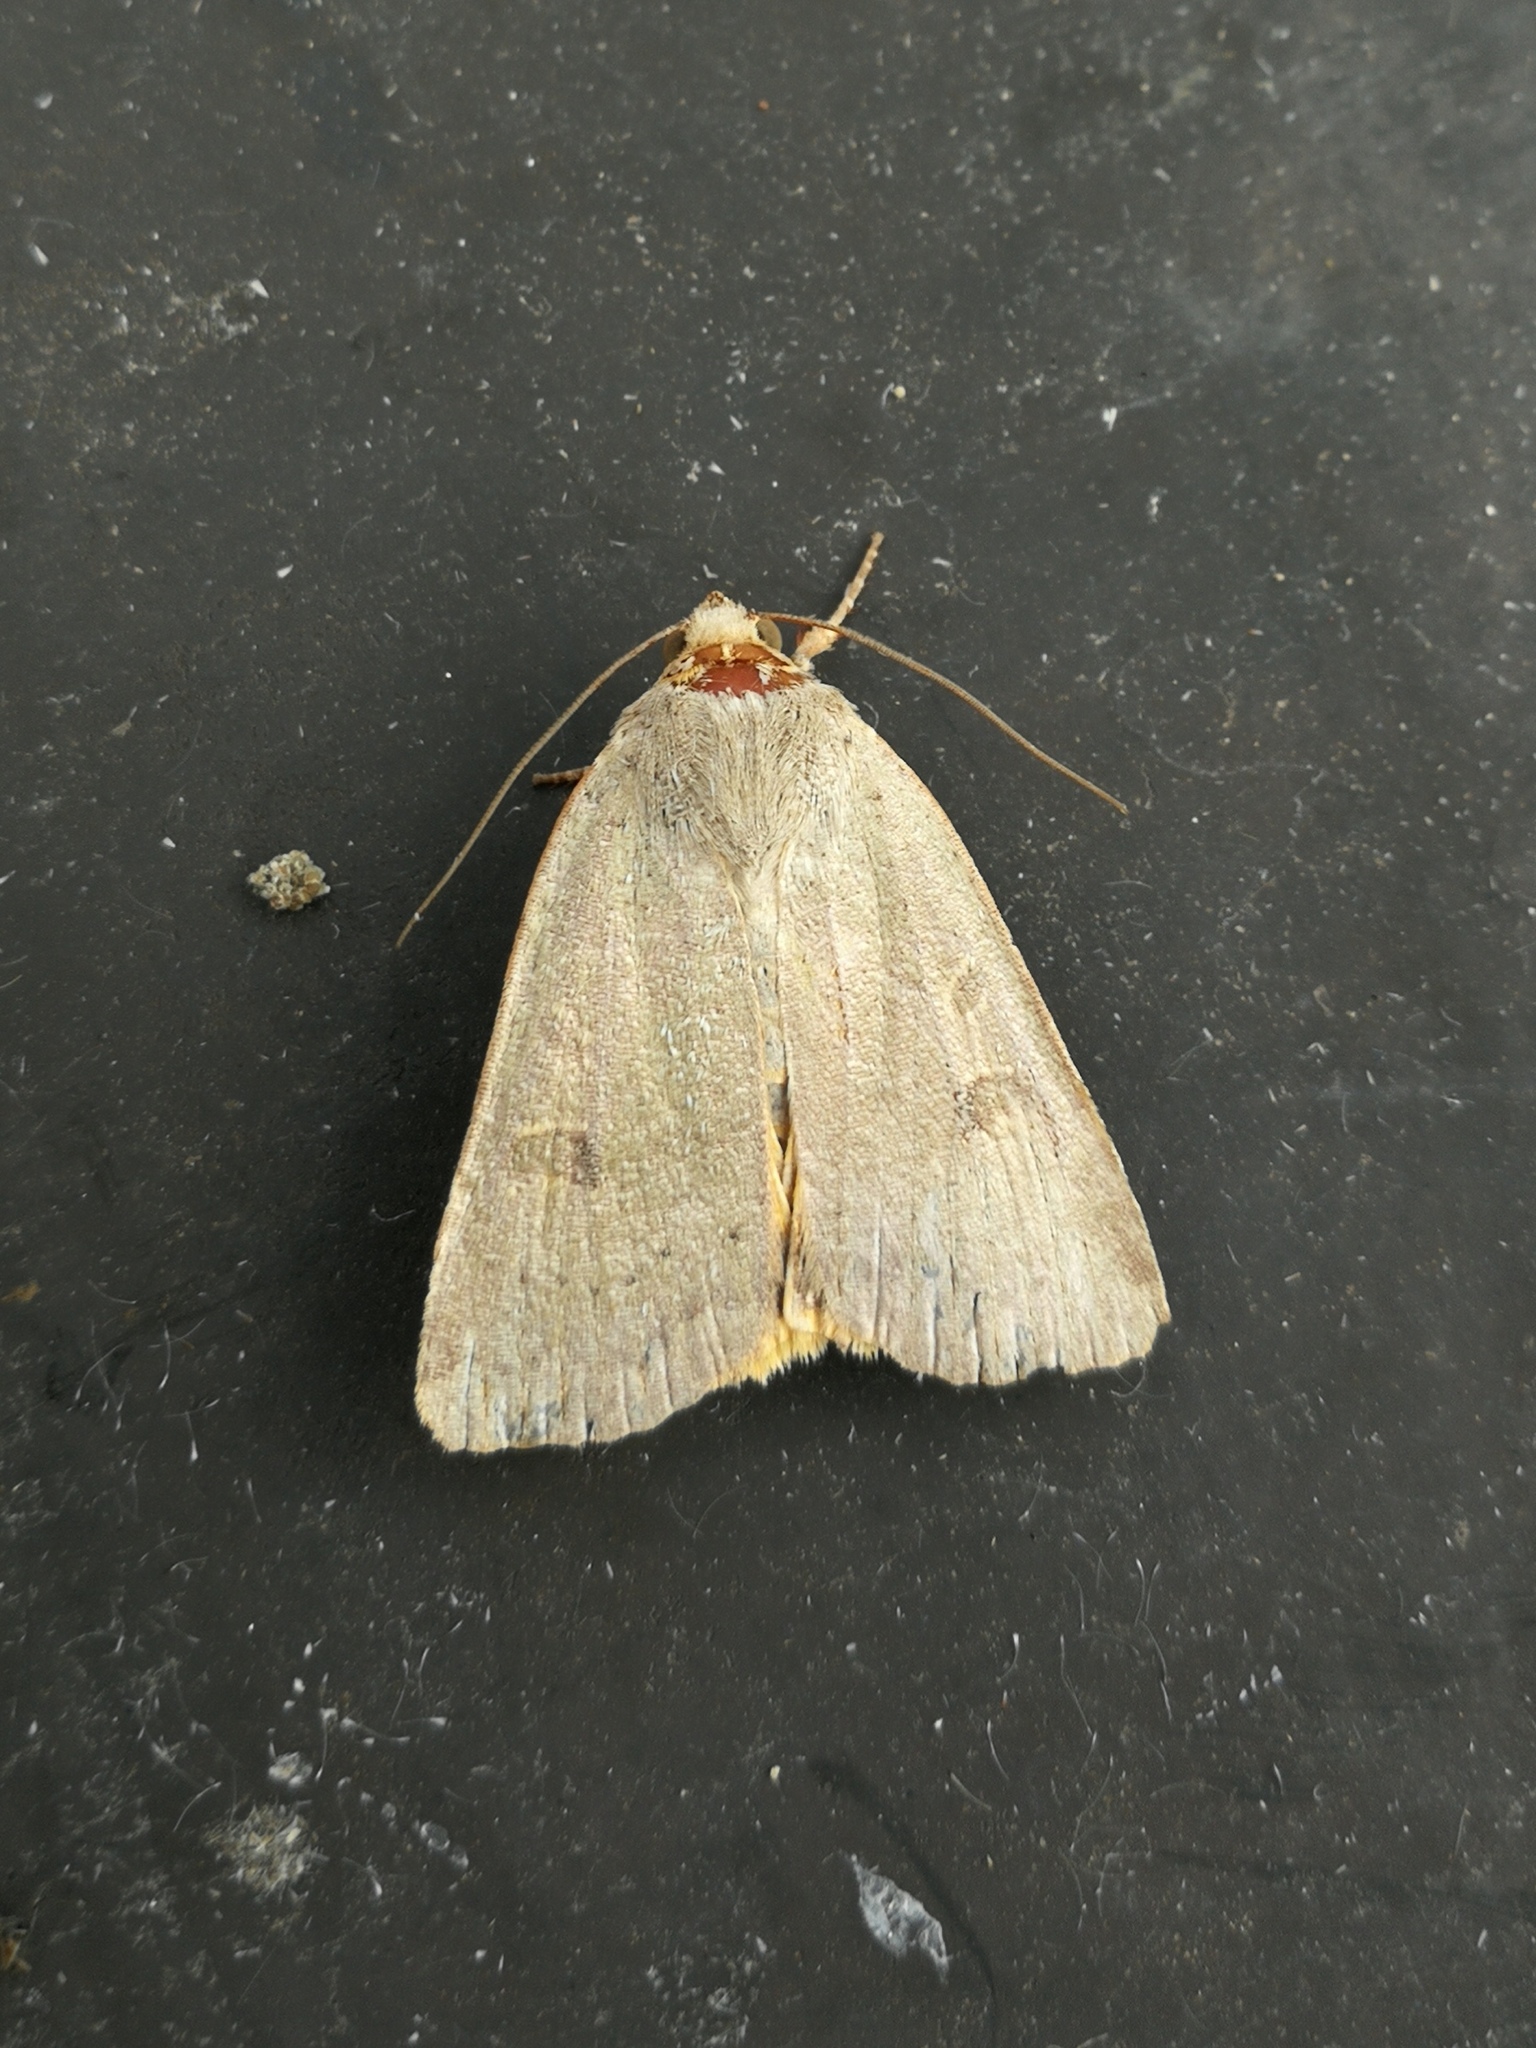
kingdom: Animalia
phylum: Arthropoda
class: Insecta
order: Lepidoptera
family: Noctuidae
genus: Noctua
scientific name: Noctua comes
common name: Lesser yellow underwing
